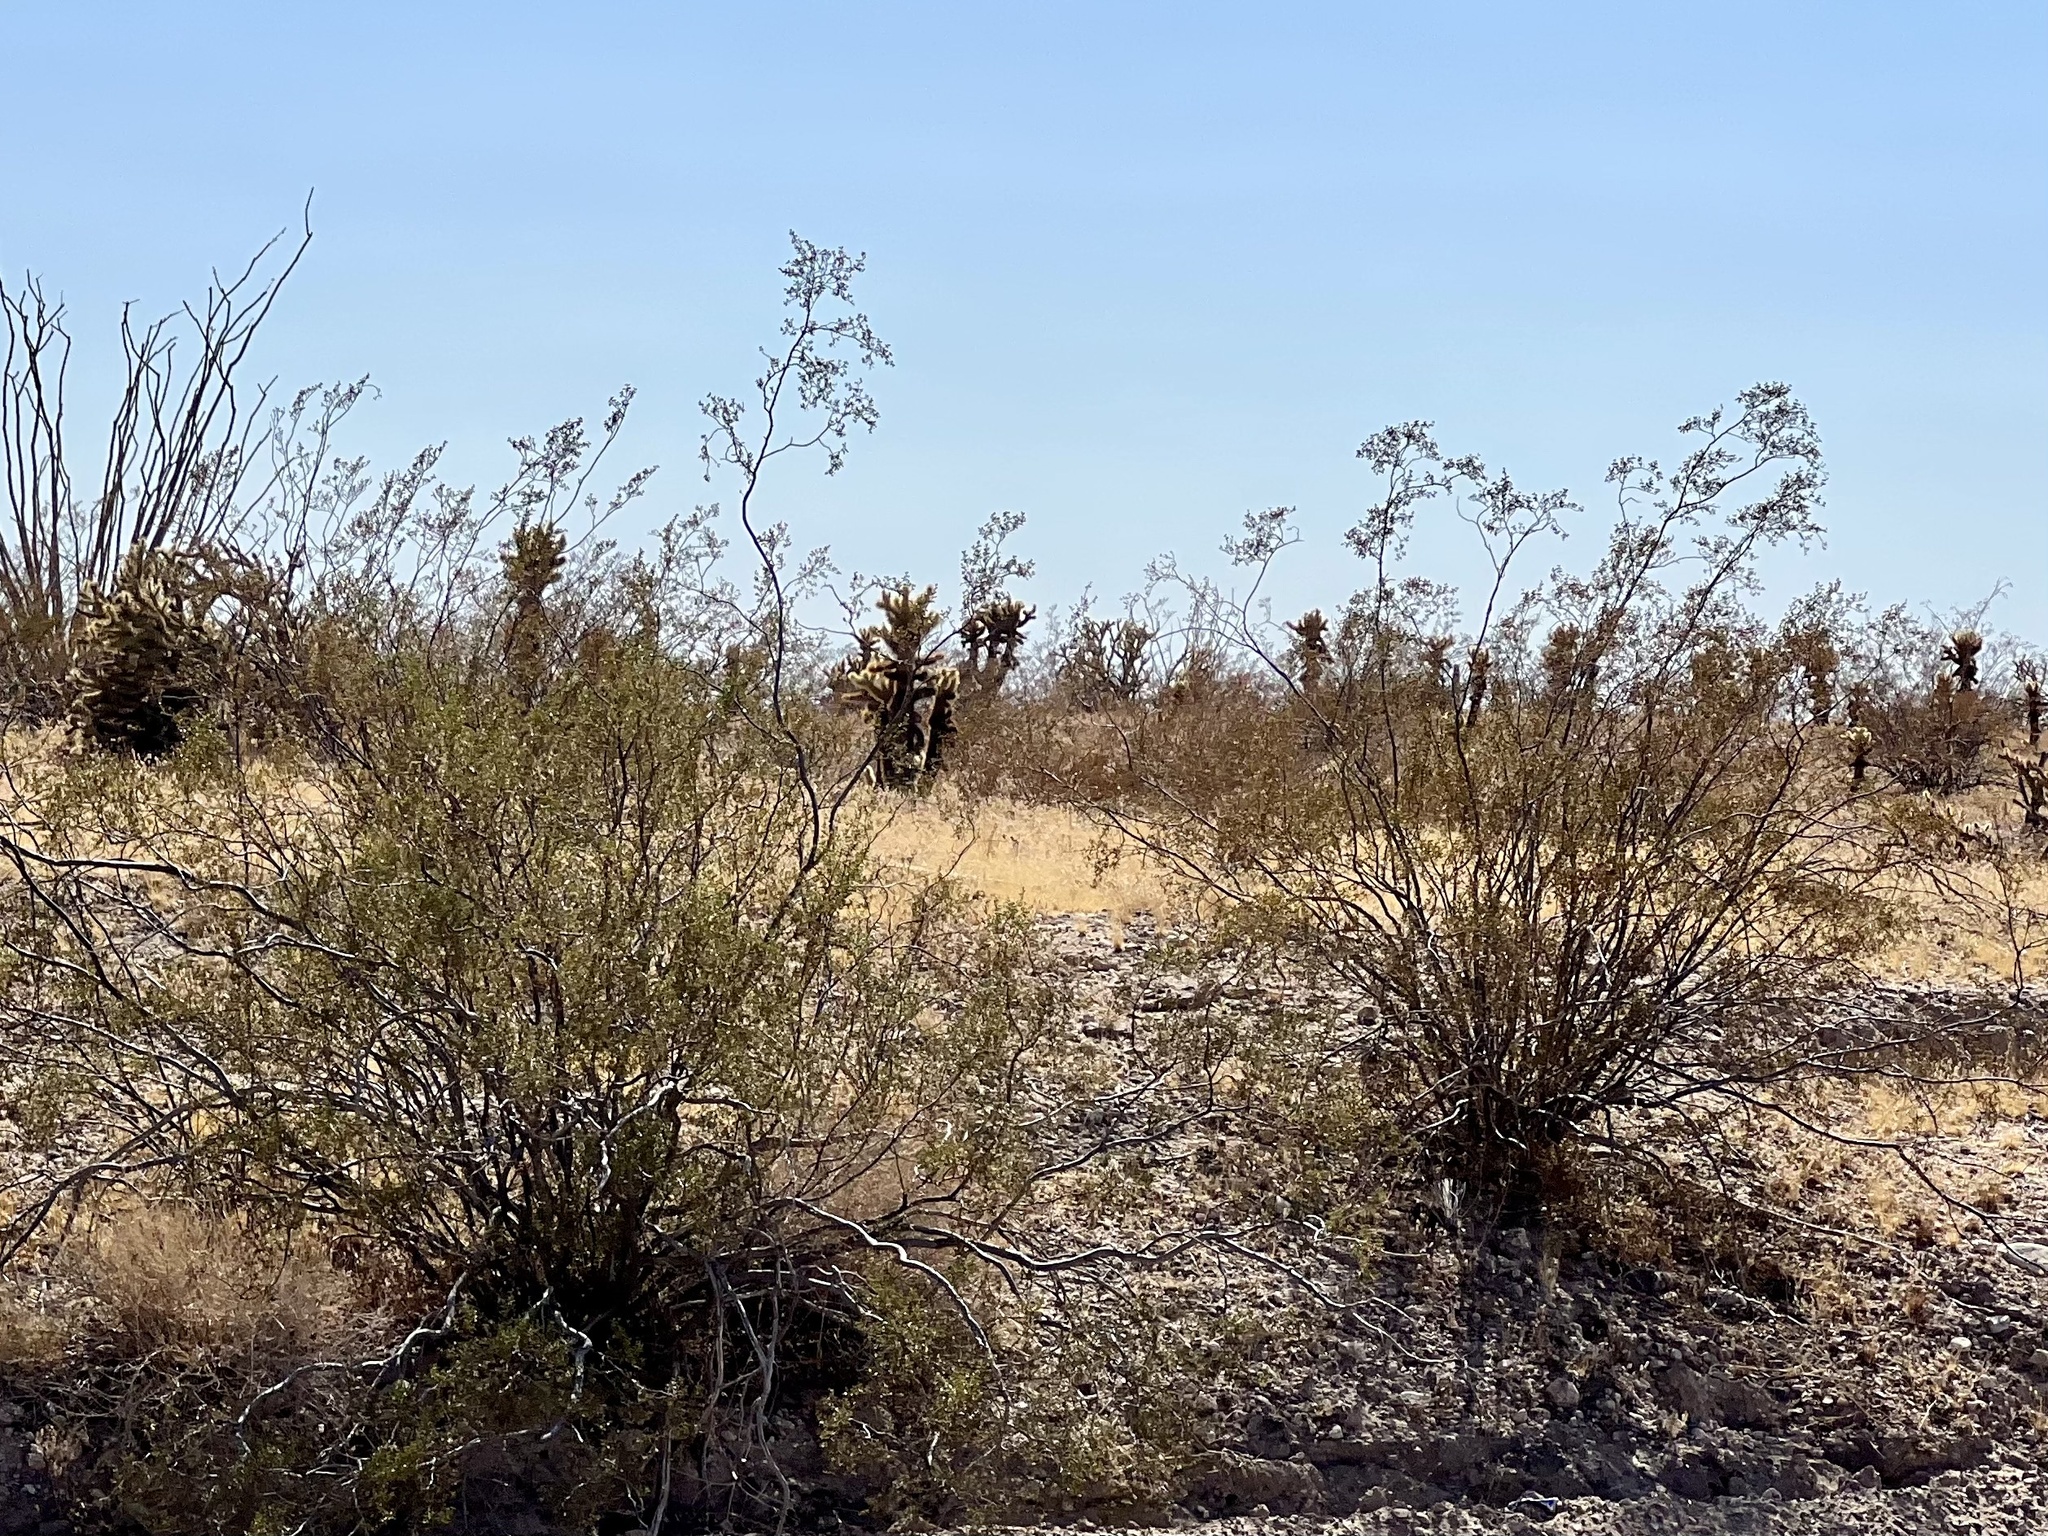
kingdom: Plantae
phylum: Tracheophyta
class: Magnoliopsida
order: Zygophyllales
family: Zygophyllaceae
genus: Larrea
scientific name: Larrea tridentata
